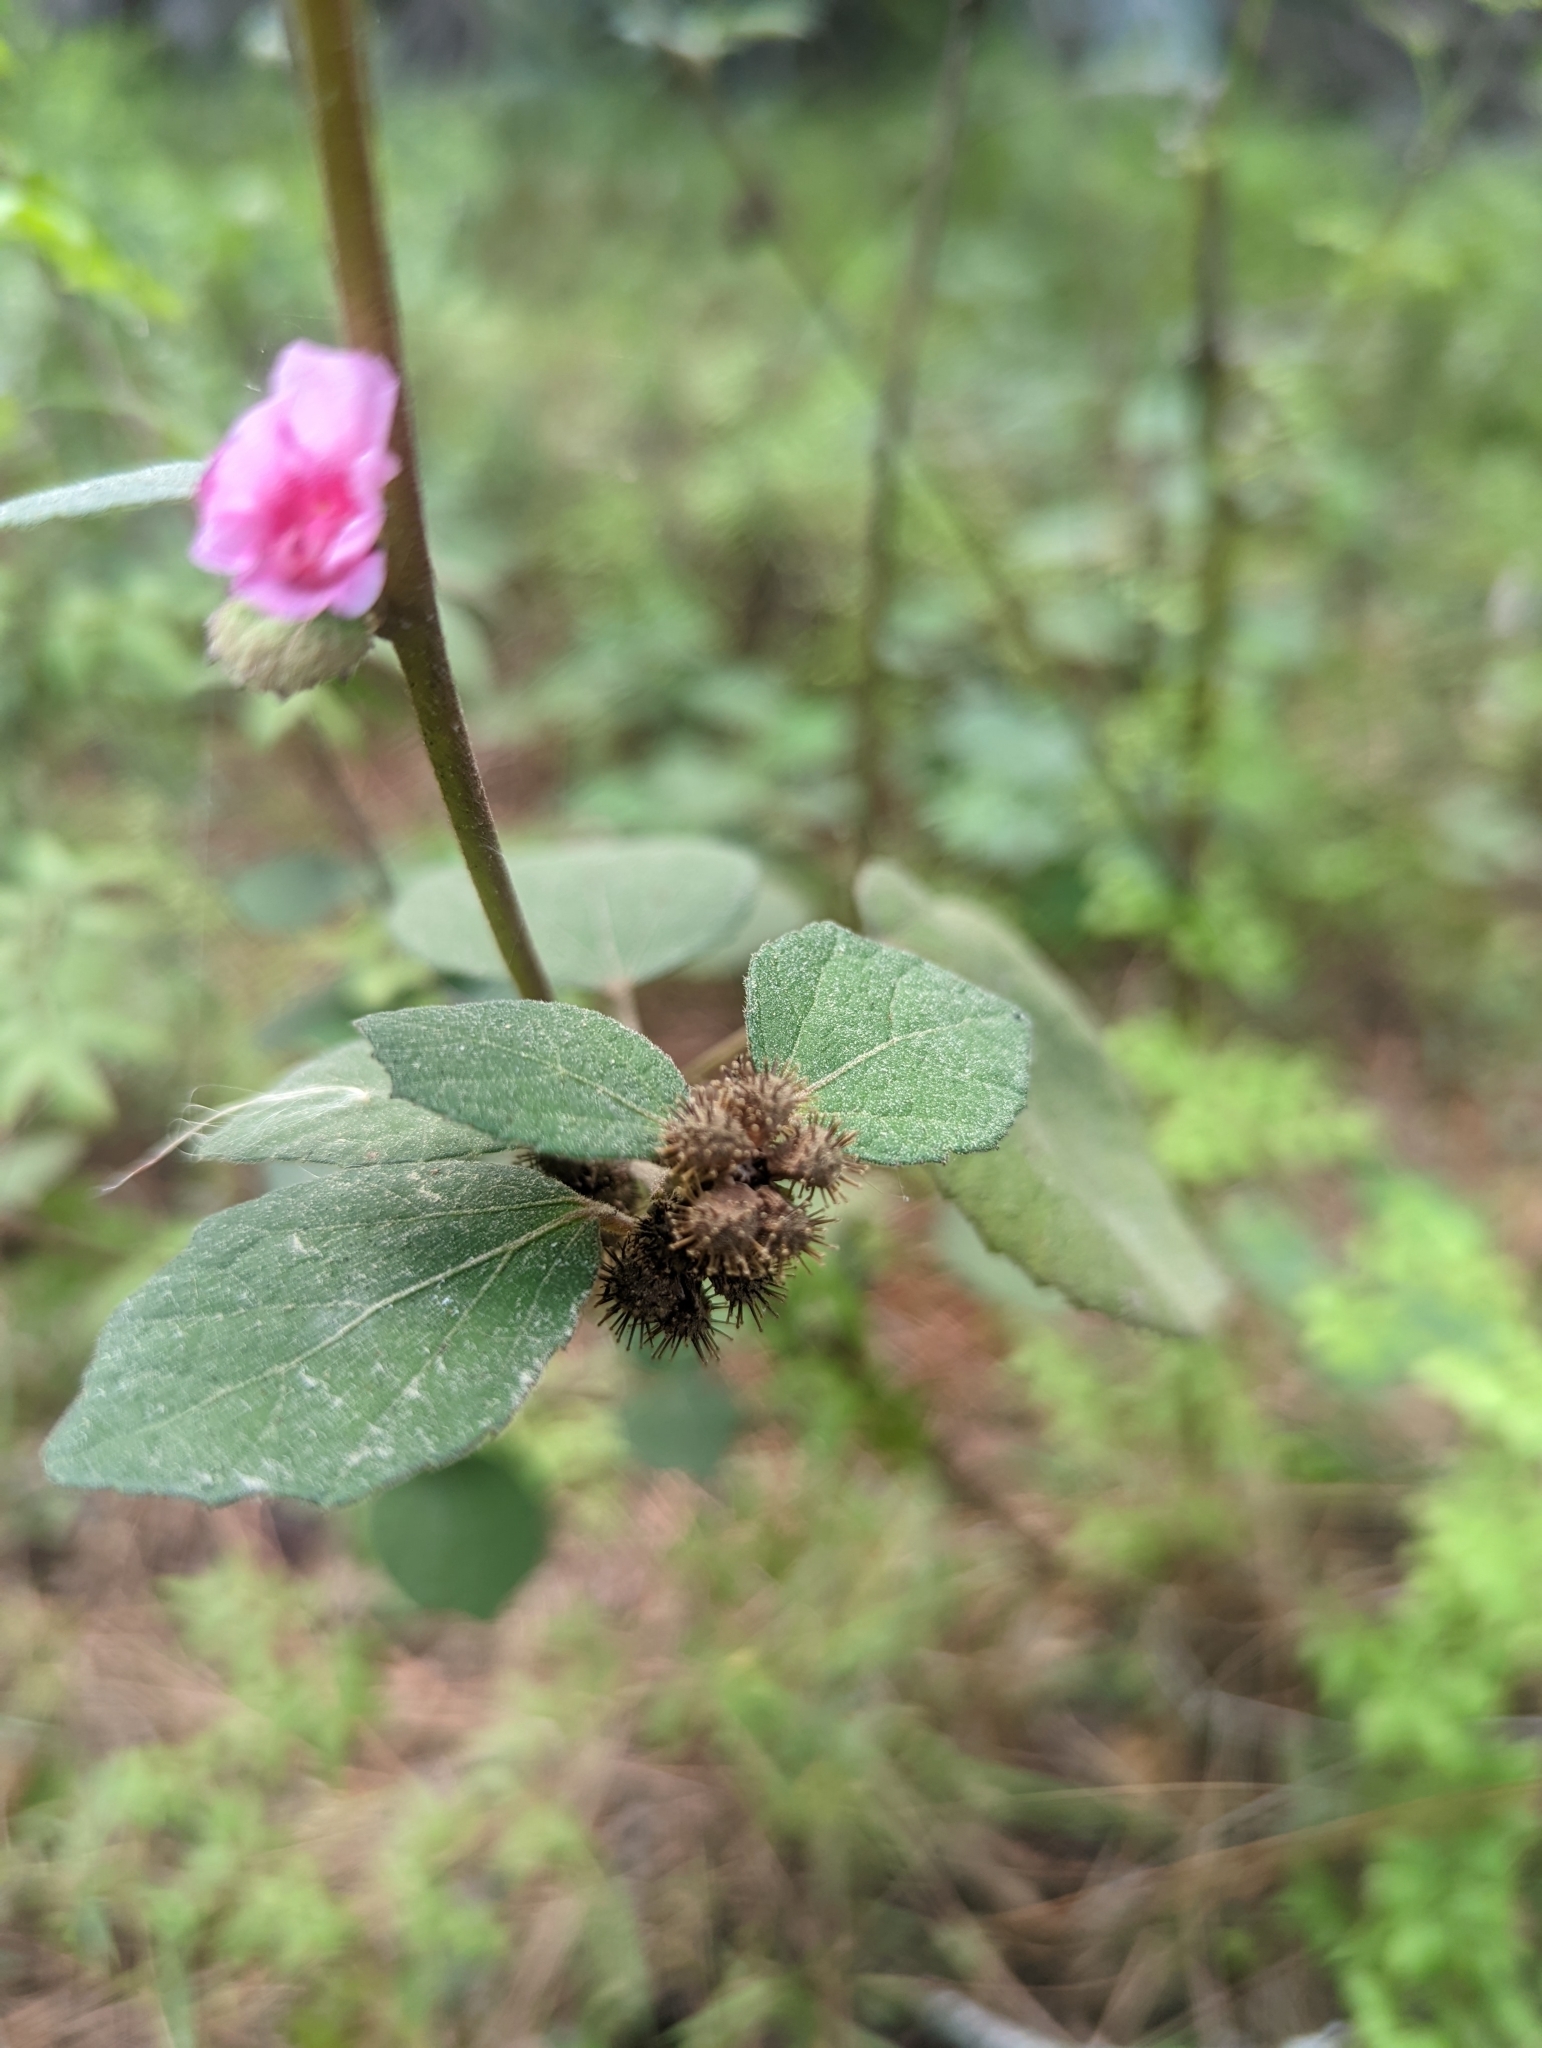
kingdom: Plantae
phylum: Tracheophyta
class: Magnoliopsida
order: Malvales
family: Malvaceae
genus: Urena
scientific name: Urena lobata
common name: Caesarweed
